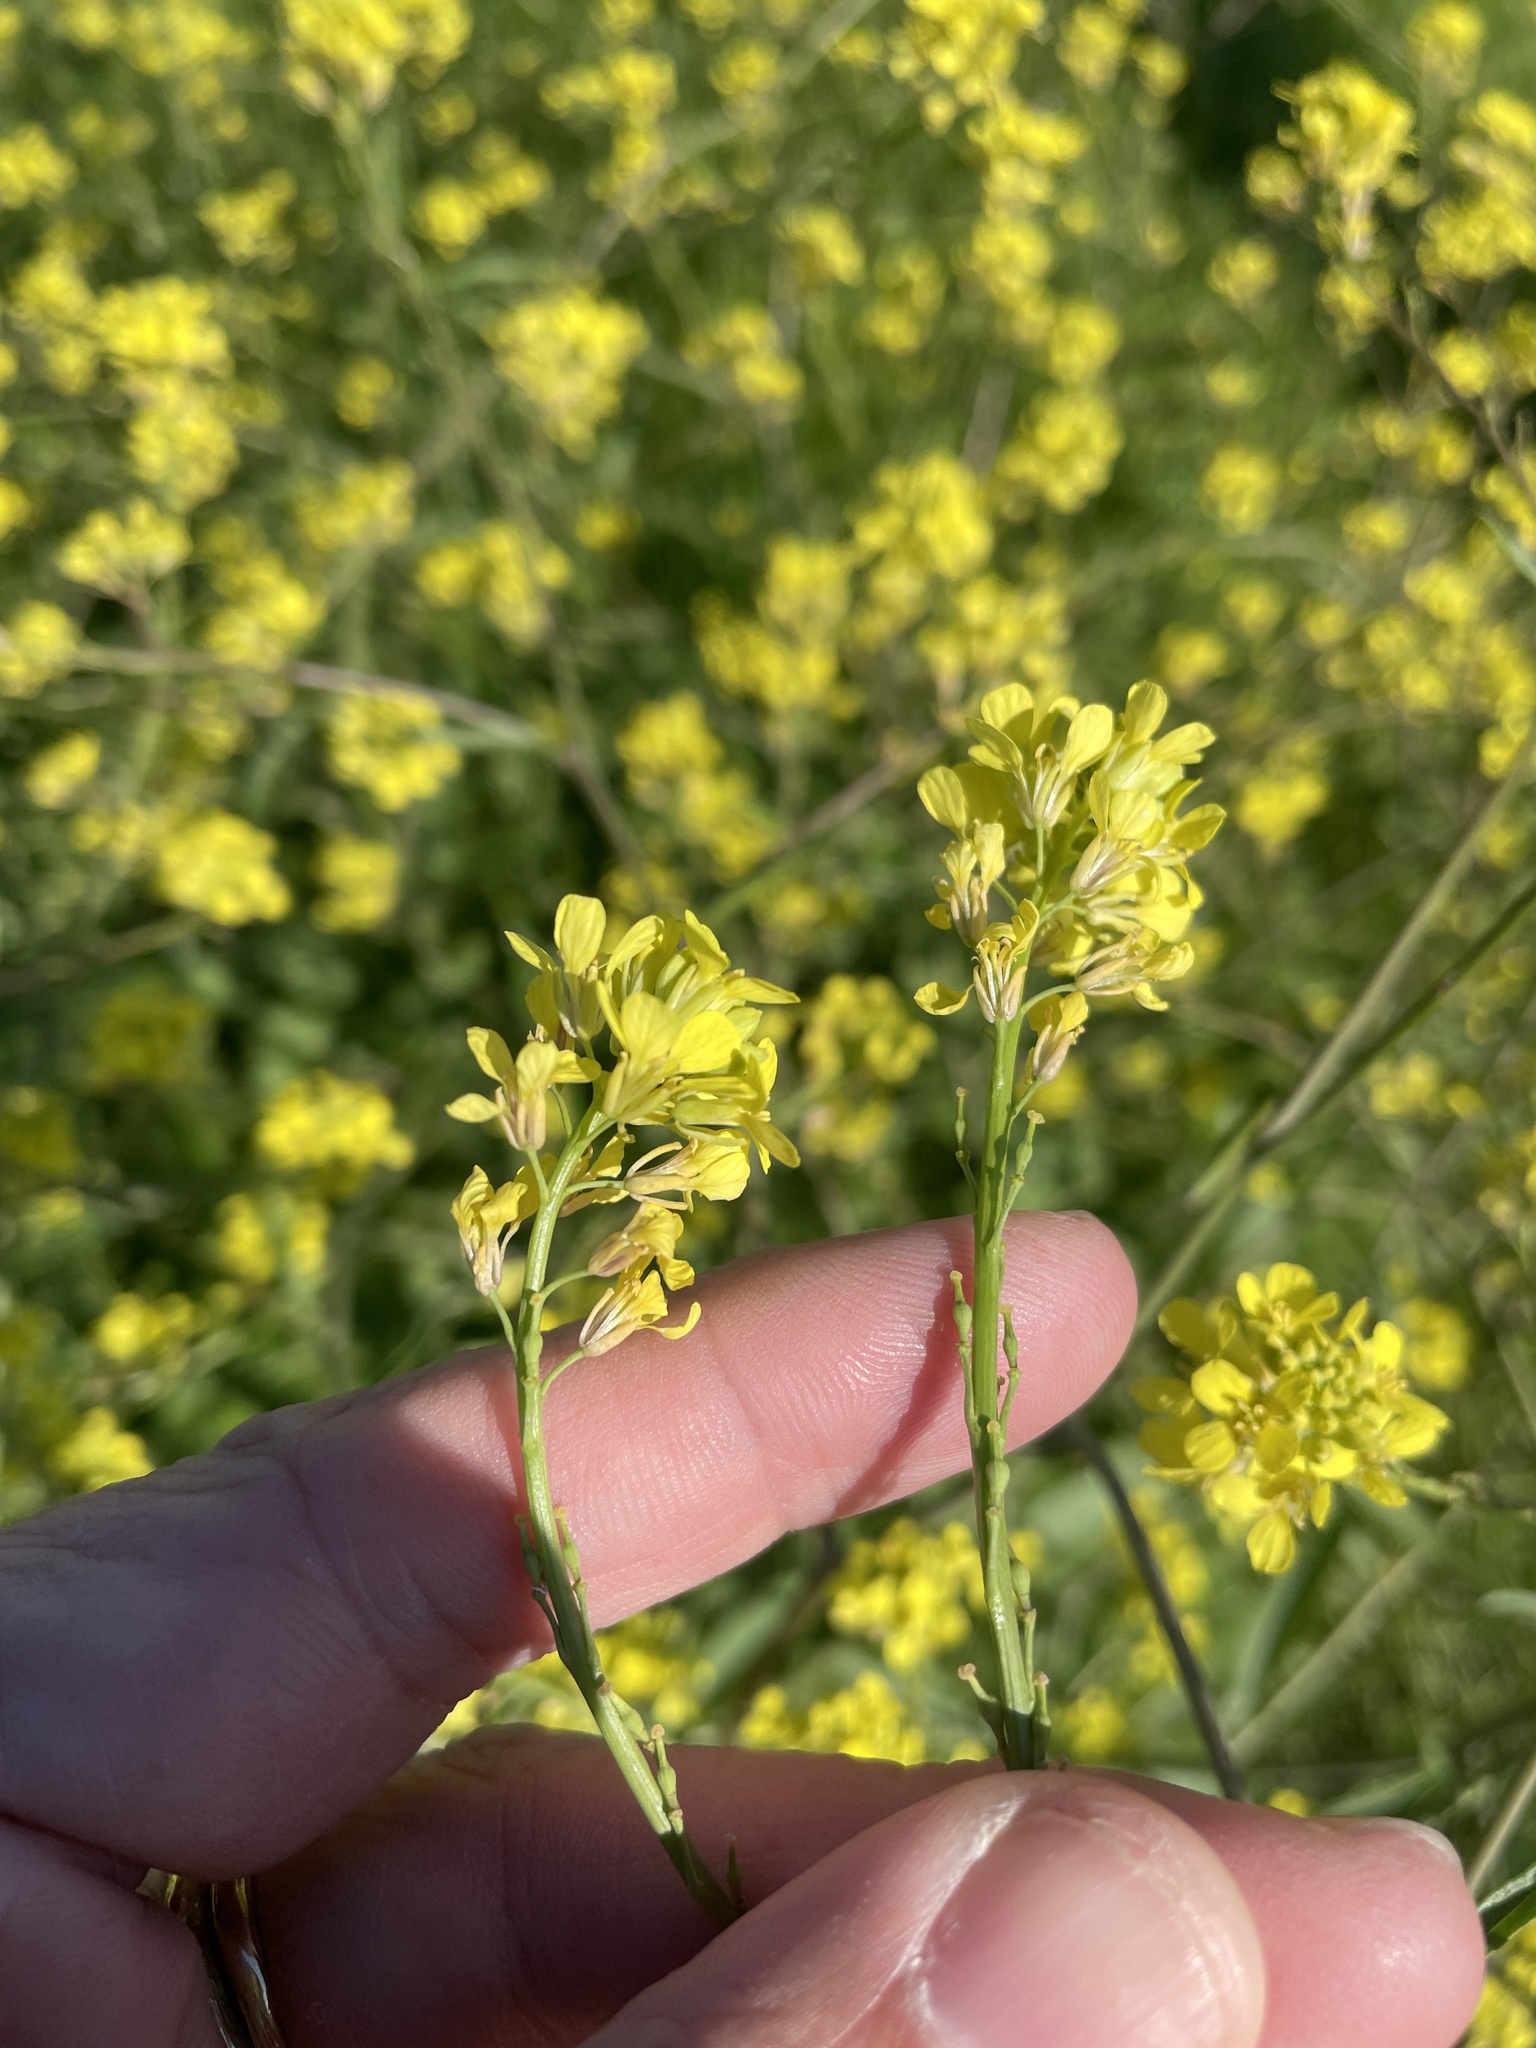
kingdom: Plantae
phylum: Tracheophyta
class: Magnoliopsida
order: Brassicales
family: Brassicaceae
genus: Rapistrum
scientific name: Rapistrum rugosum
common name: Annual bastardcabbage
